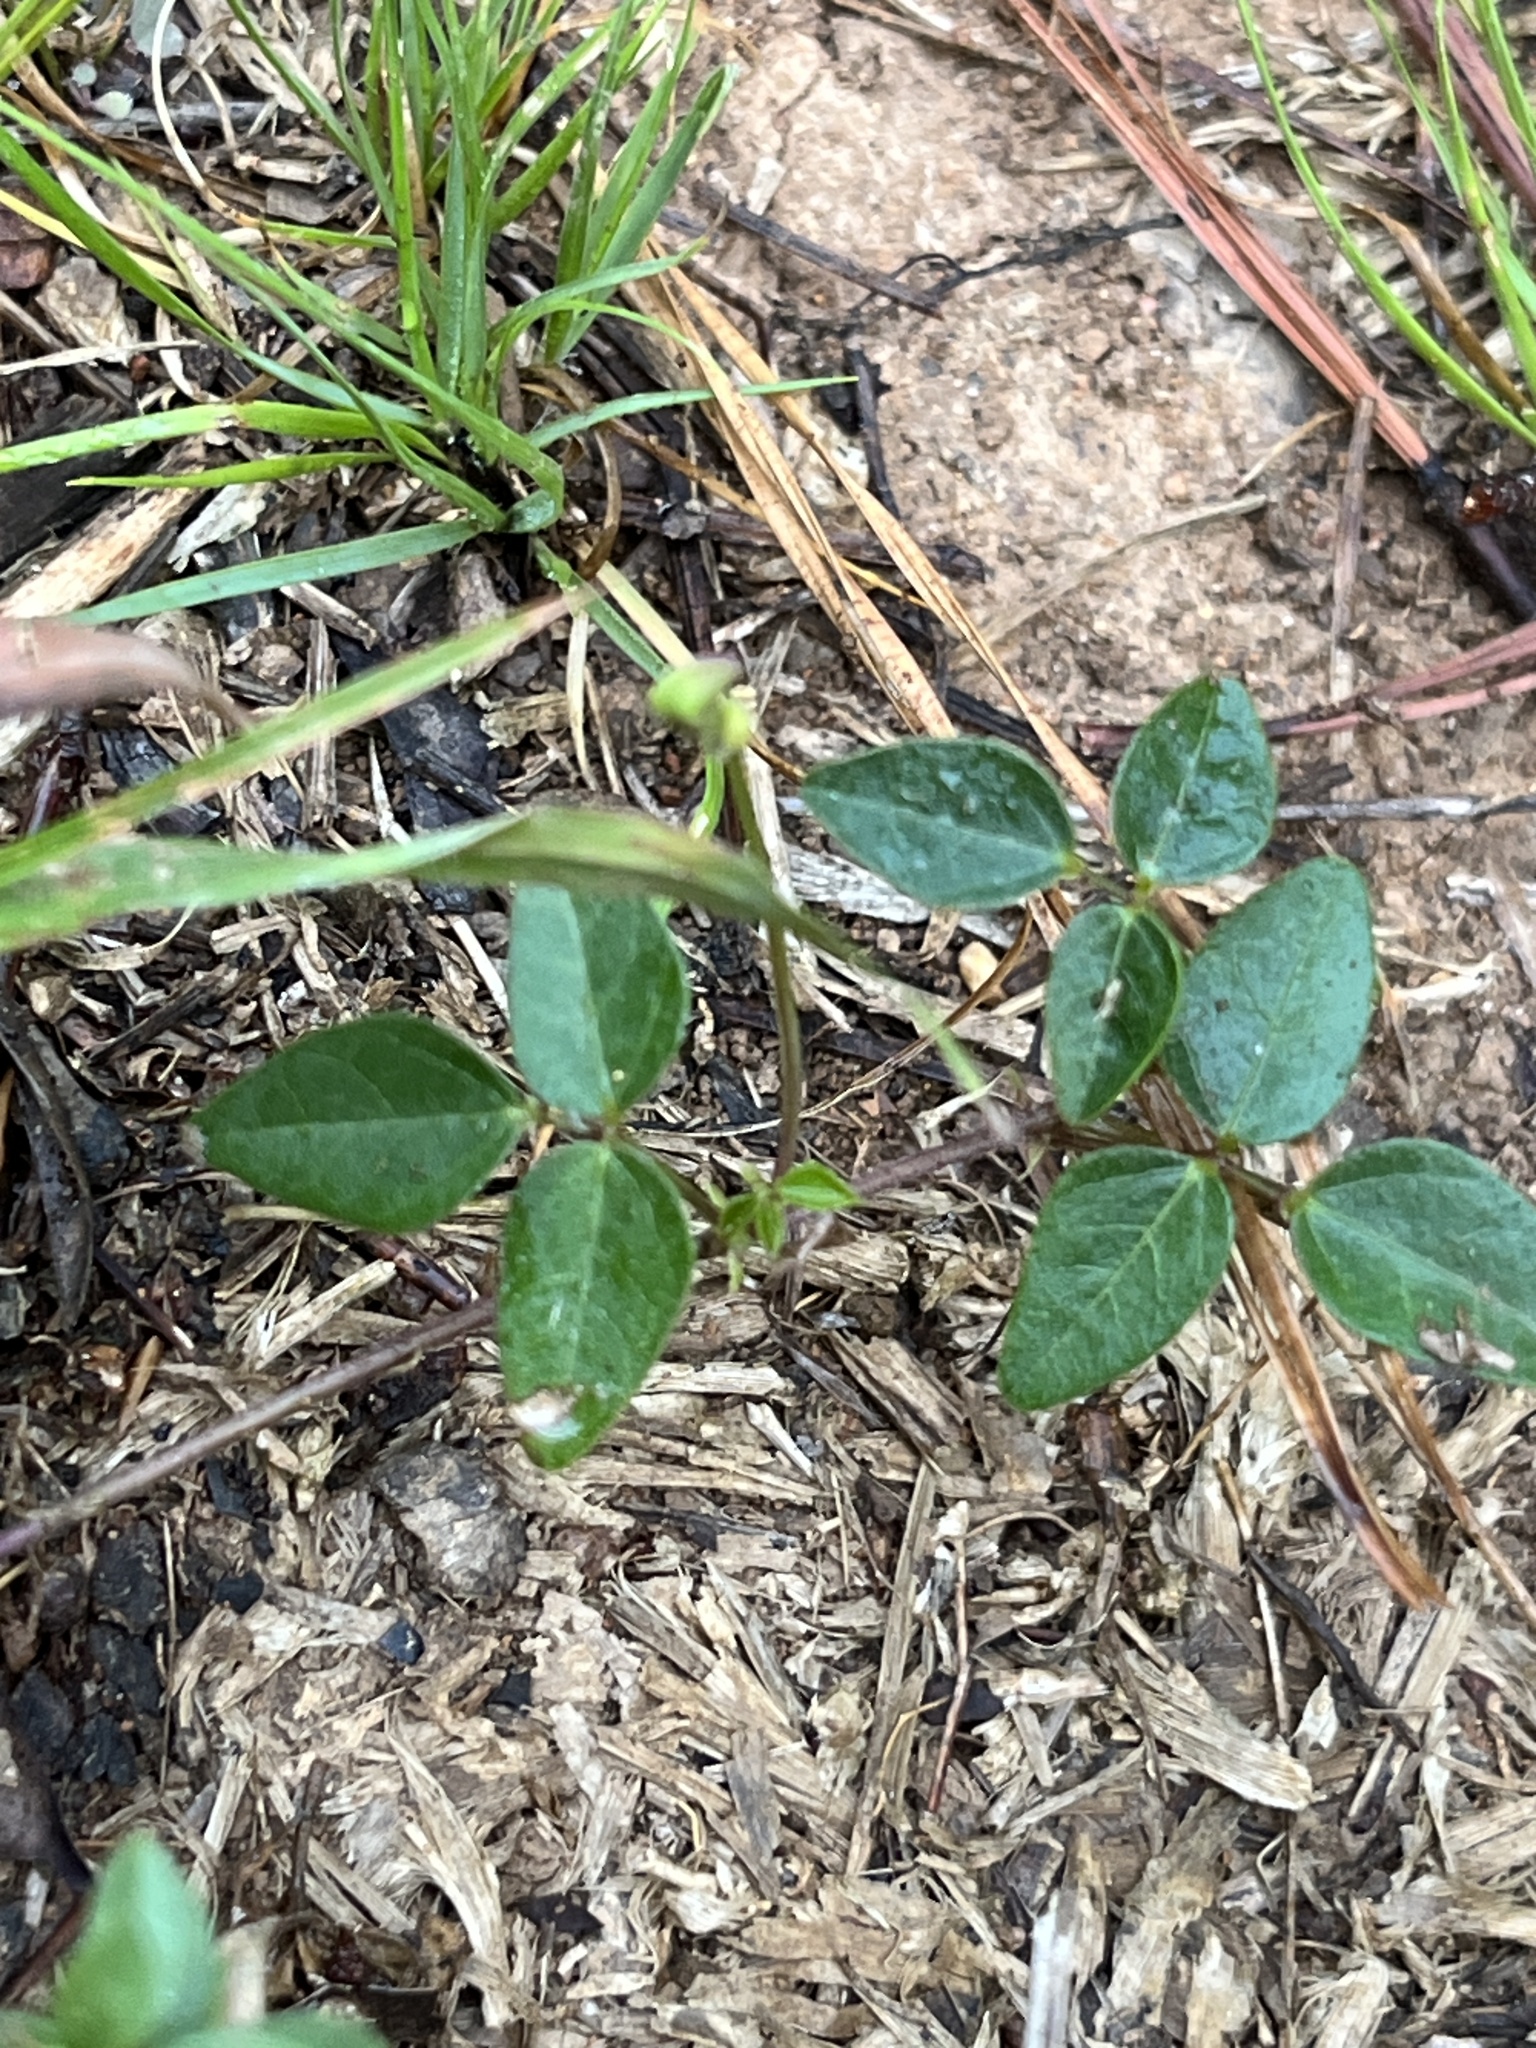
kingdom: Plantae
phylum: Tracheophyta
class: Magnoliopsida
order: Fabales
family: Fabaceae
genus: Strophostyles
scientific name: Strophostyles umbellata
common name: Perennial wild bean
